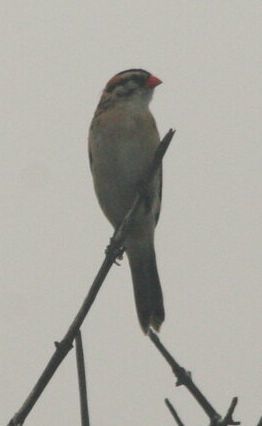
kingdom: Animalia
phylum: Chordata
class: Aves
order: Passeriformes
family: Viduidae
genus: Vidua
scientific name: Vidua macroura
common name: Pin-tailed whydah
